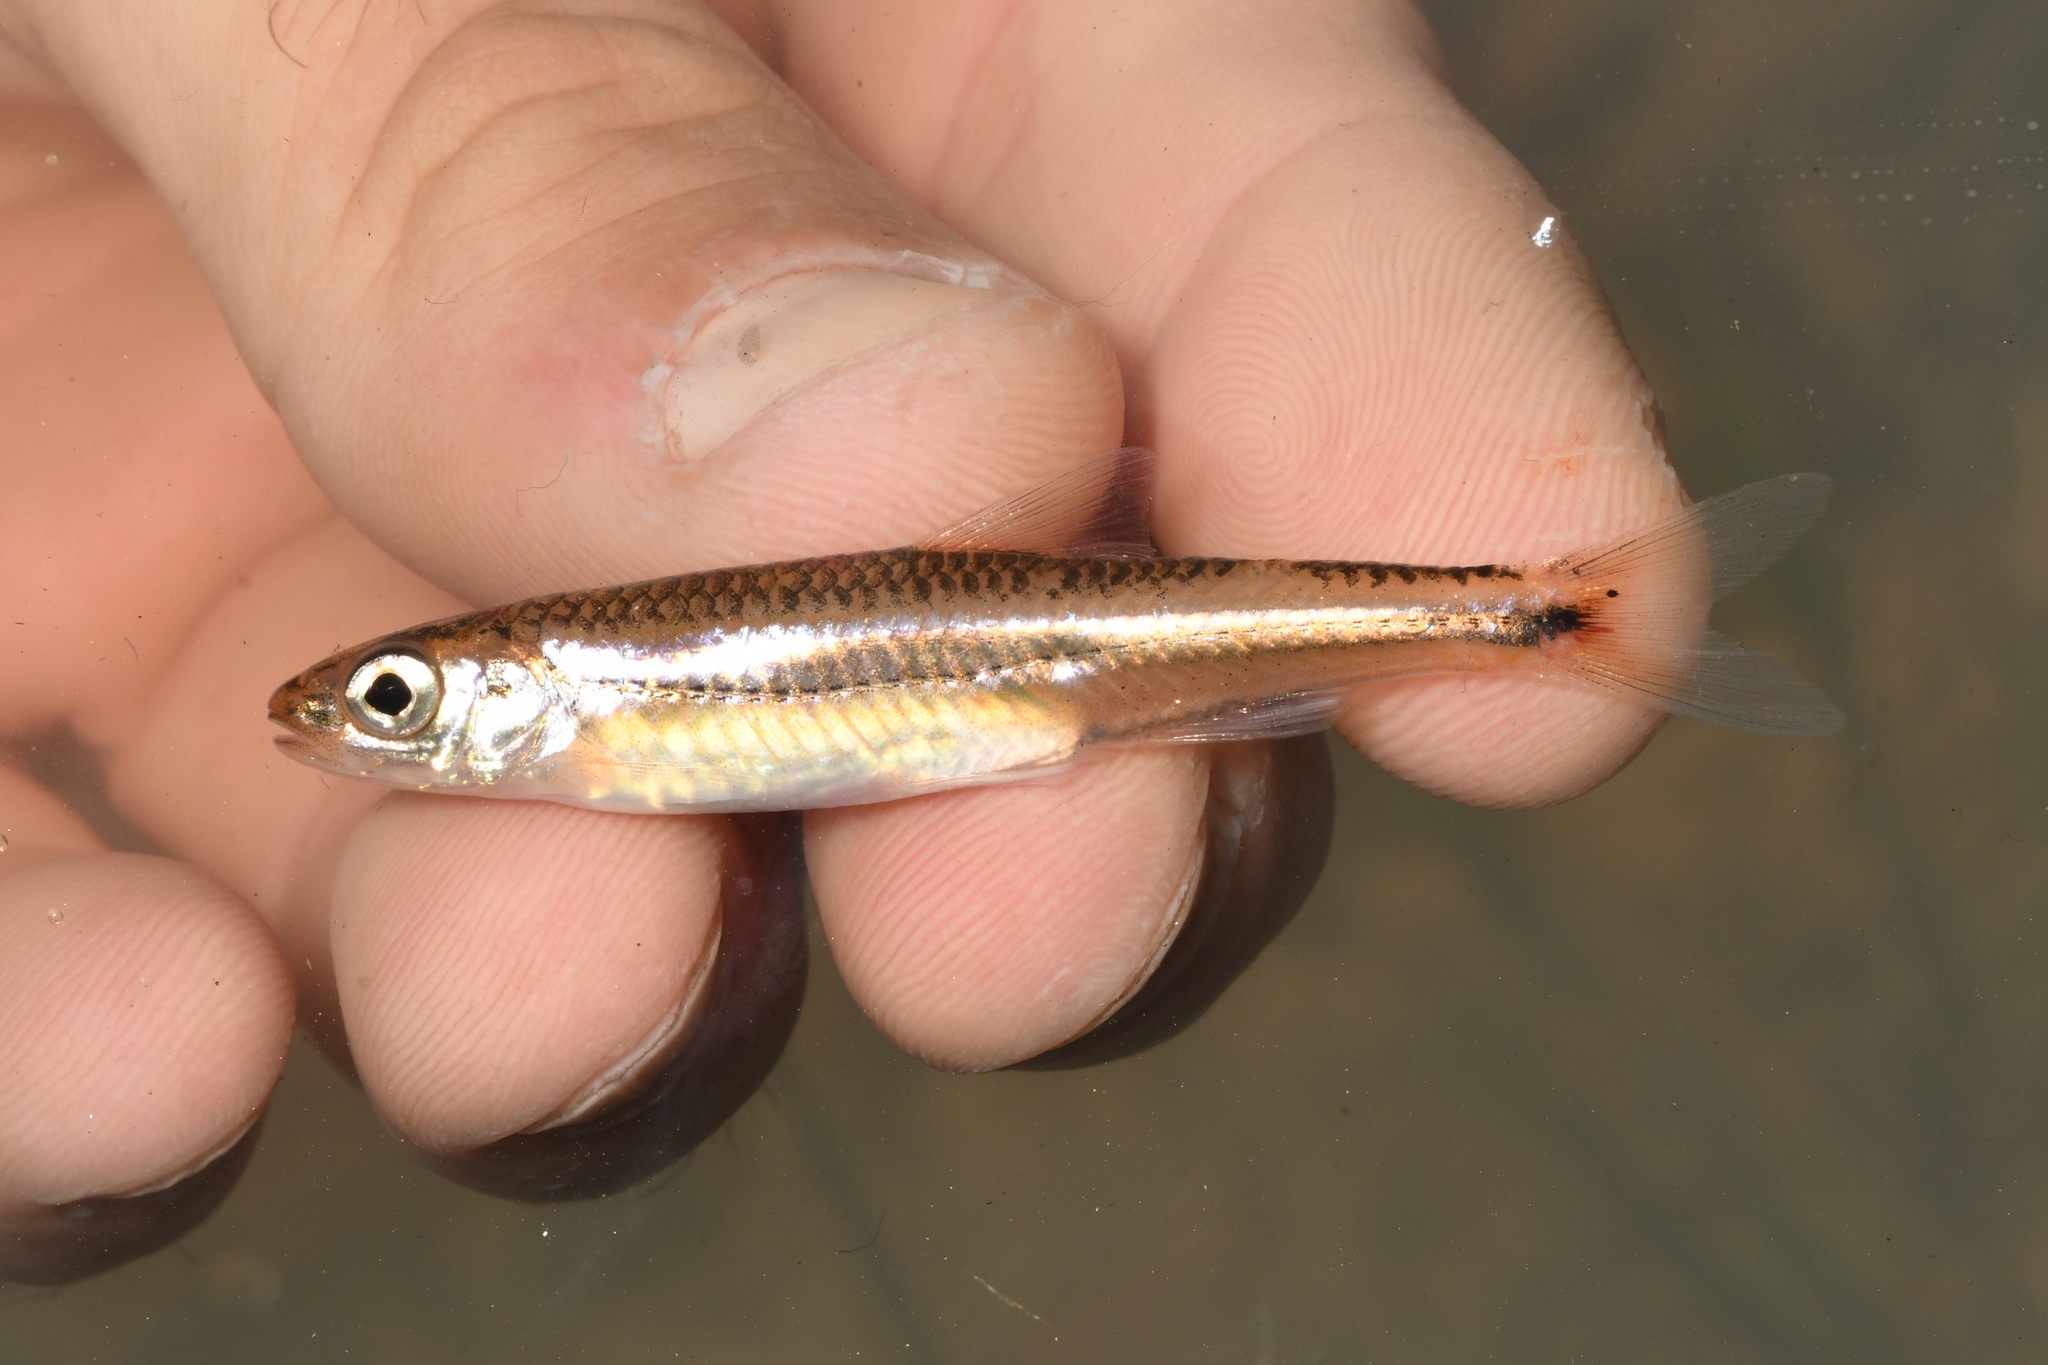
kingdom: Animalia
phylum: Chordata
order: Cypriniformes
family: Cyprinidae
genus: Notropis
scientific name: Notropis
